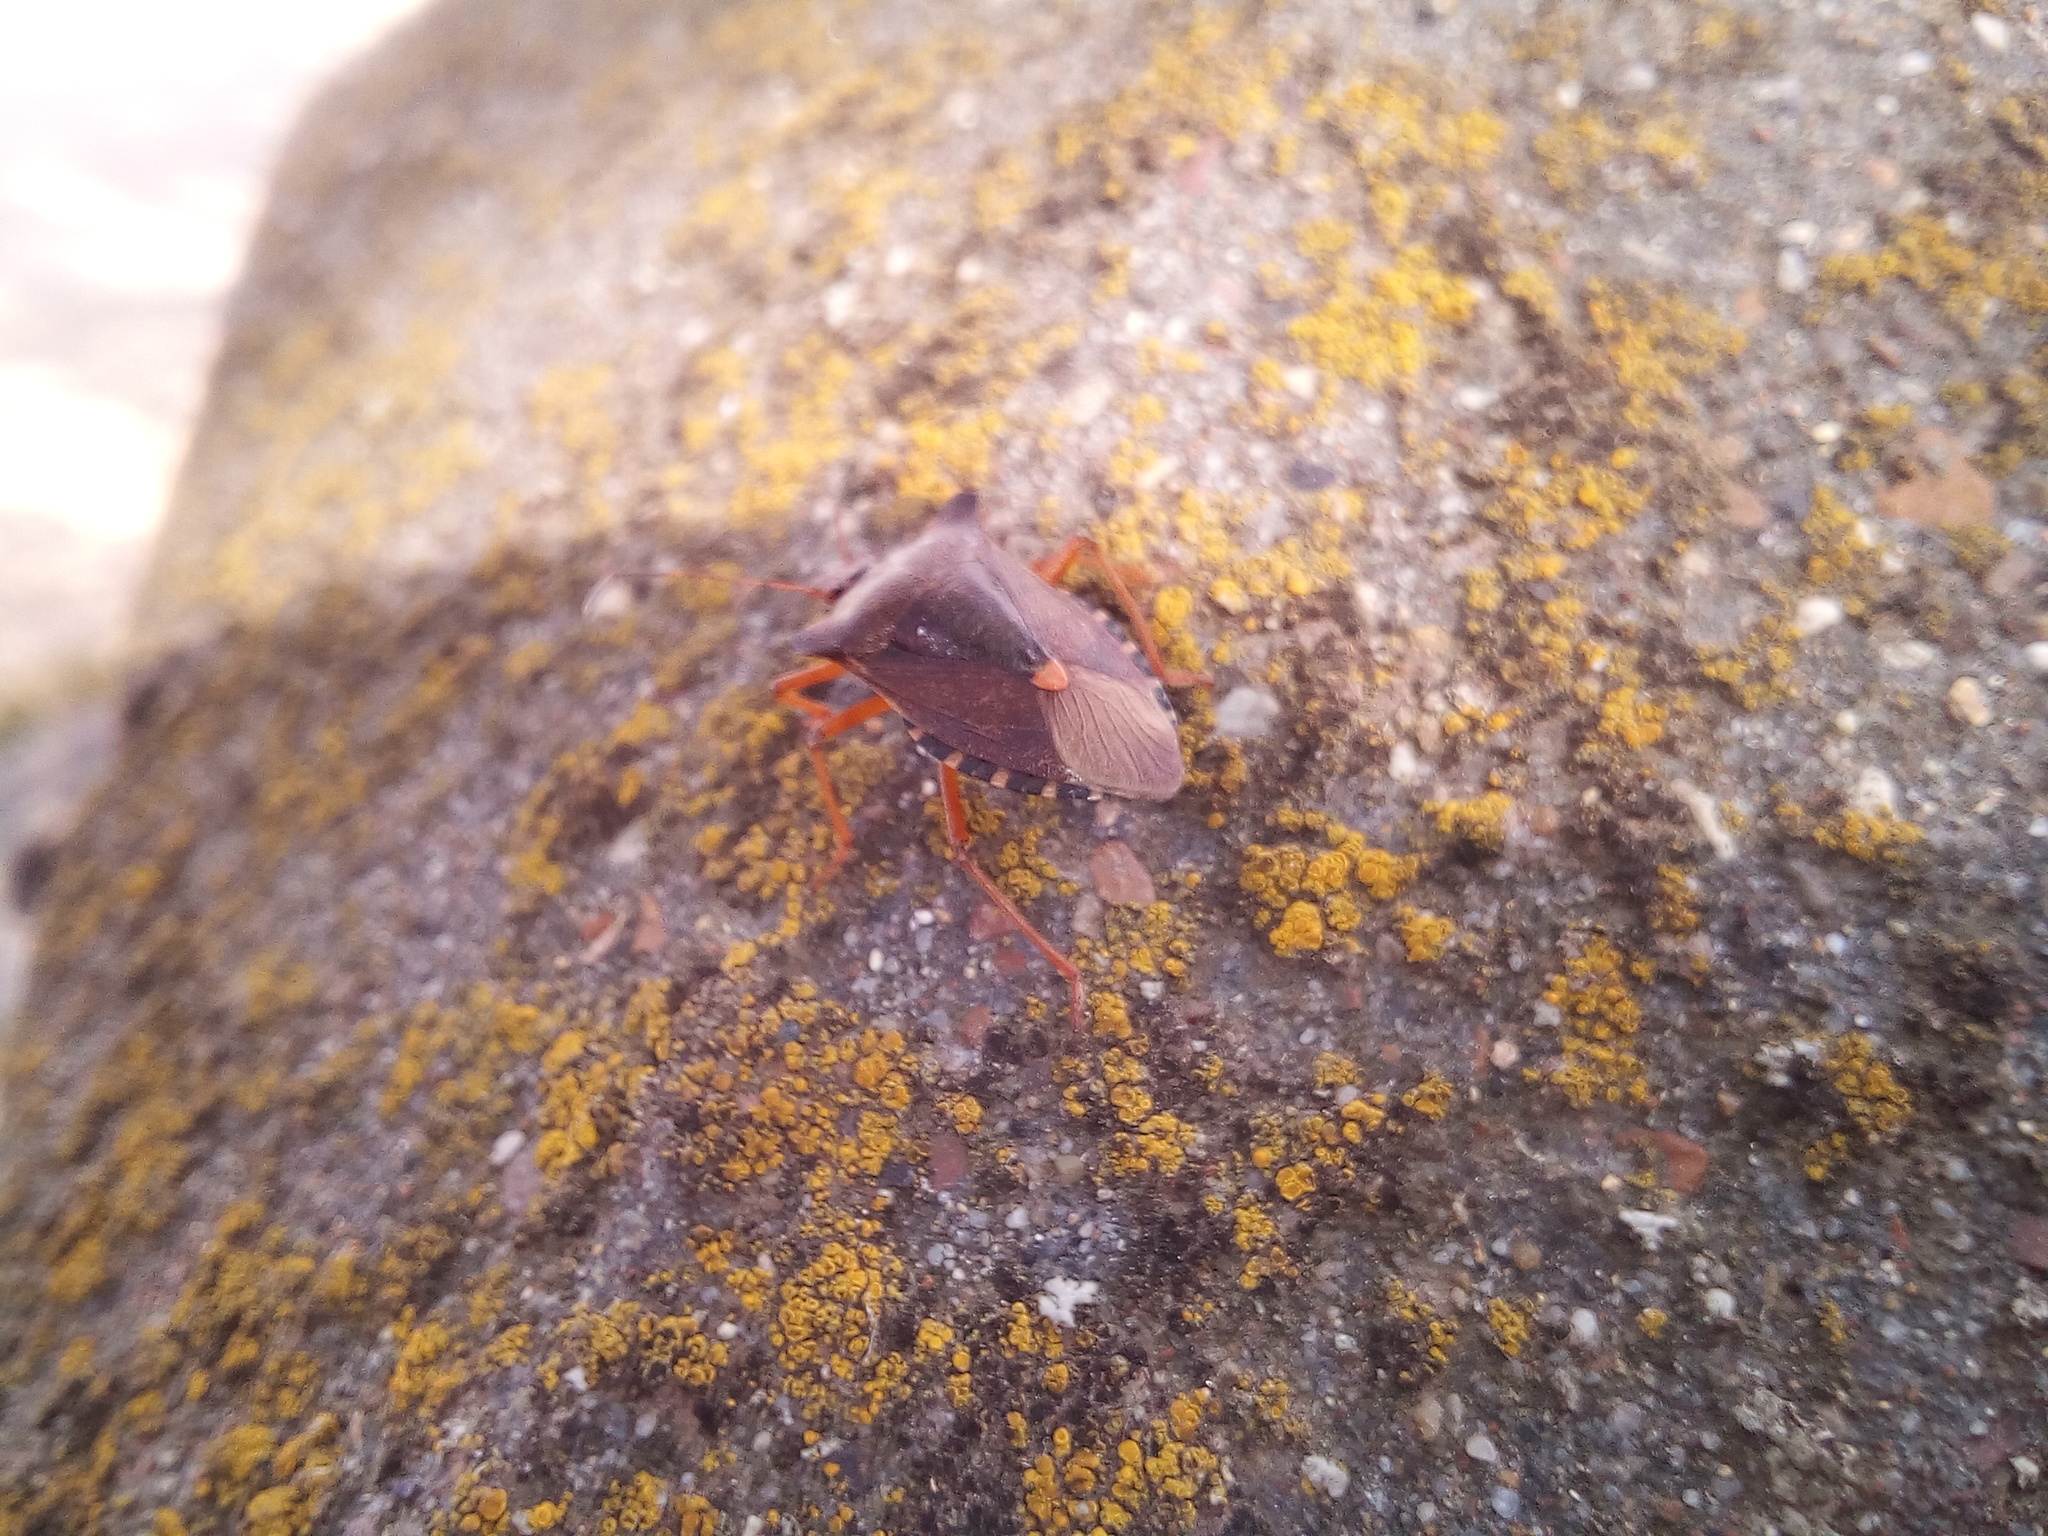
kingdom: Animalia
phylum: Arthropoda
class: Insecta
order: Hemiptera
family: Pentatomidae
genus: Pentatoma
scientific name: Pentatoma rufipes
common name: Forest bug
